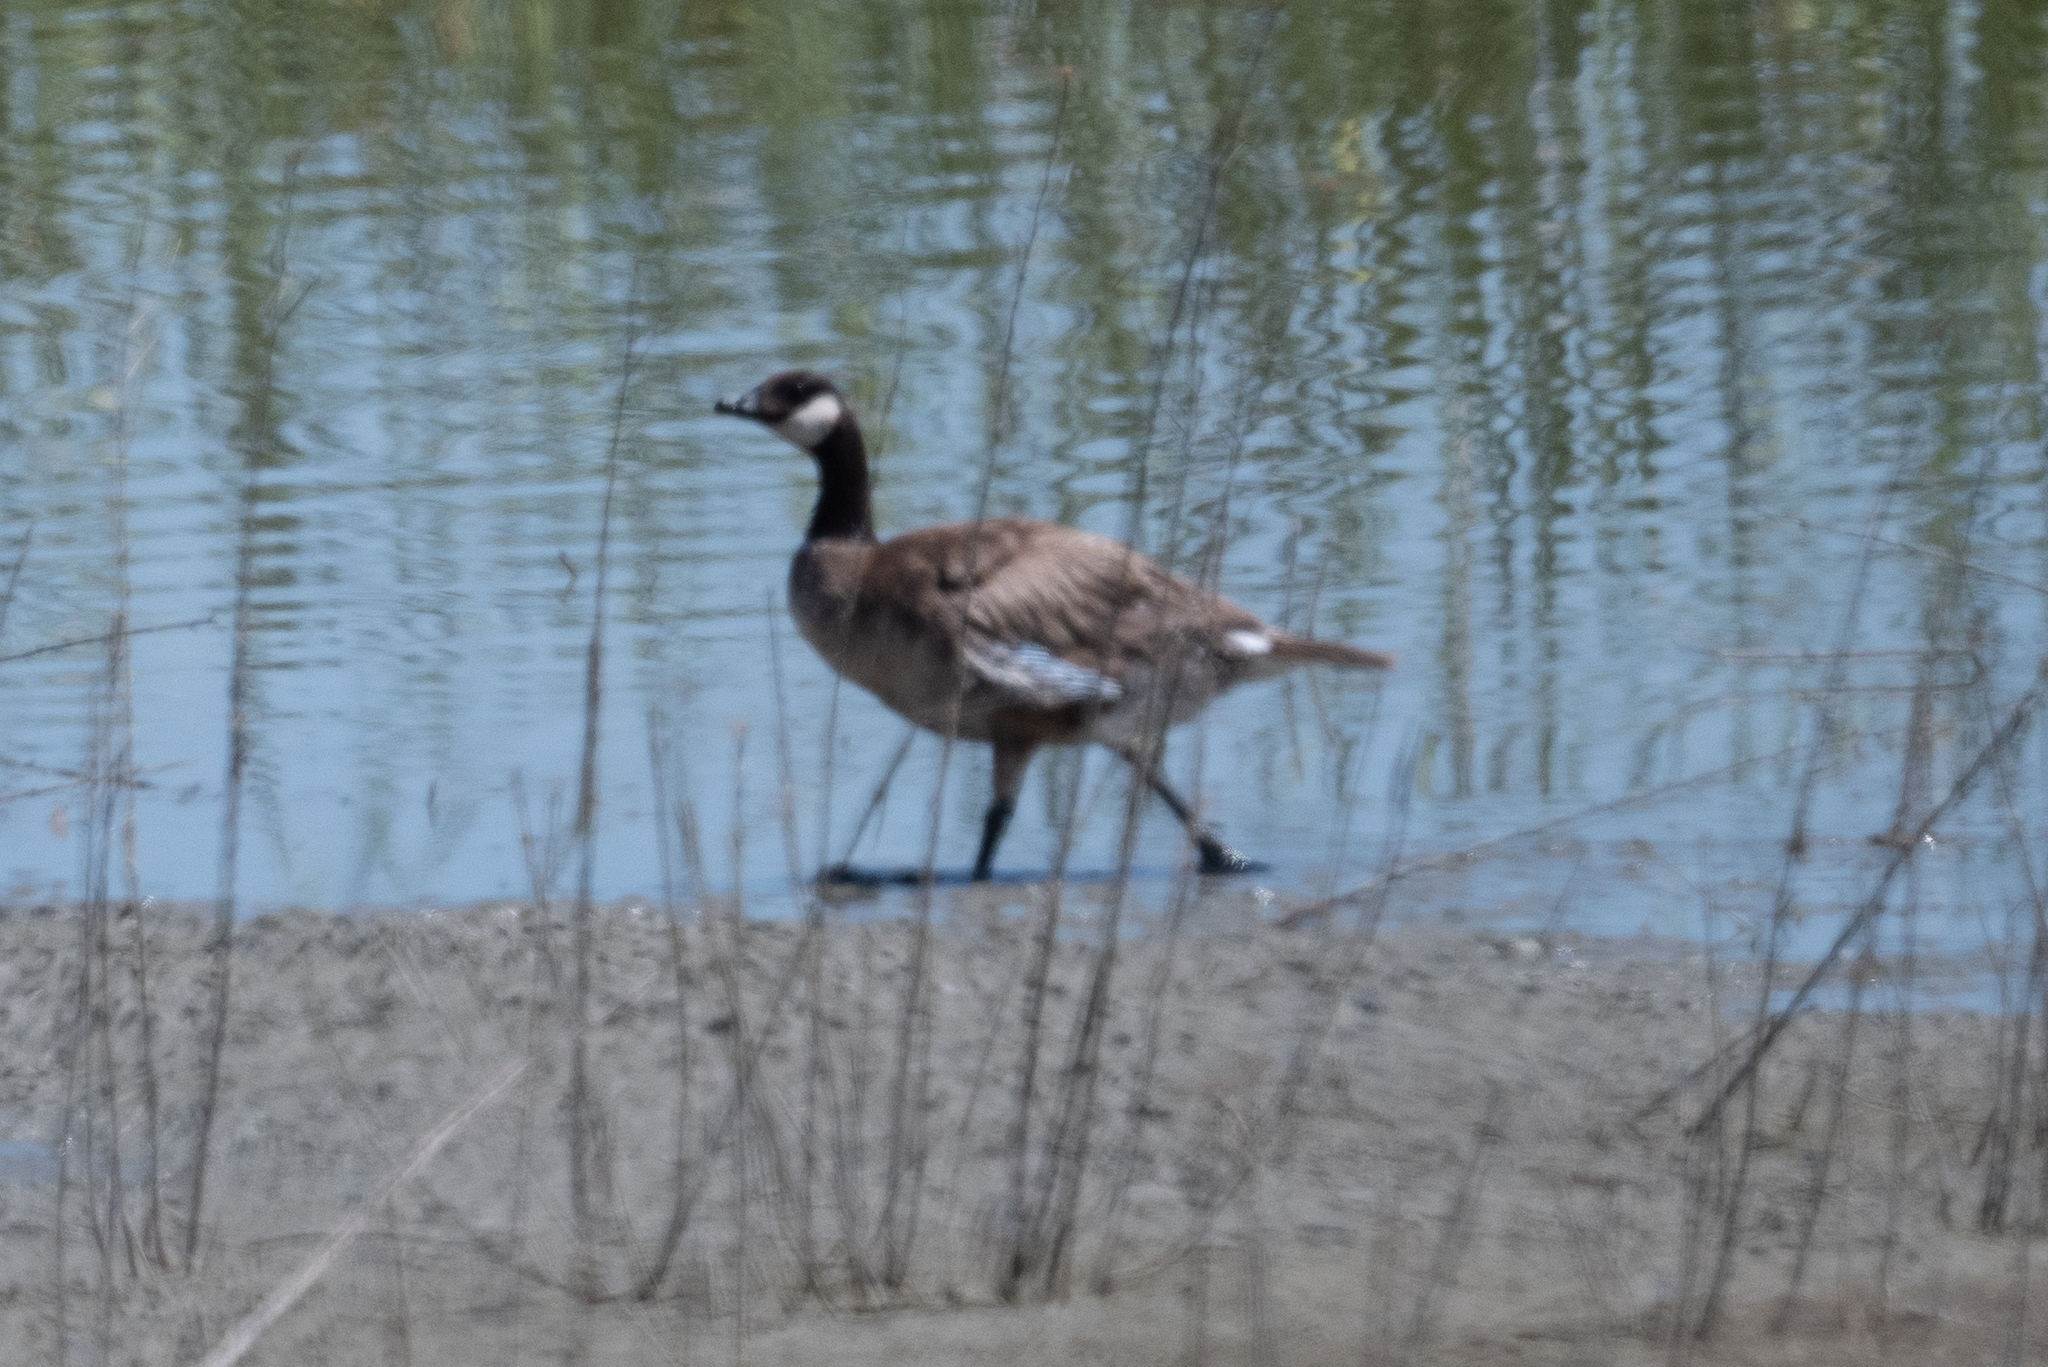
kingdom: Animalia
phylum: Chordata
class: Aves
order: Anseriformes
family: Anatidae
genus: Branta
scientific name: Branta hutchinsii
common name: Cackling goose
